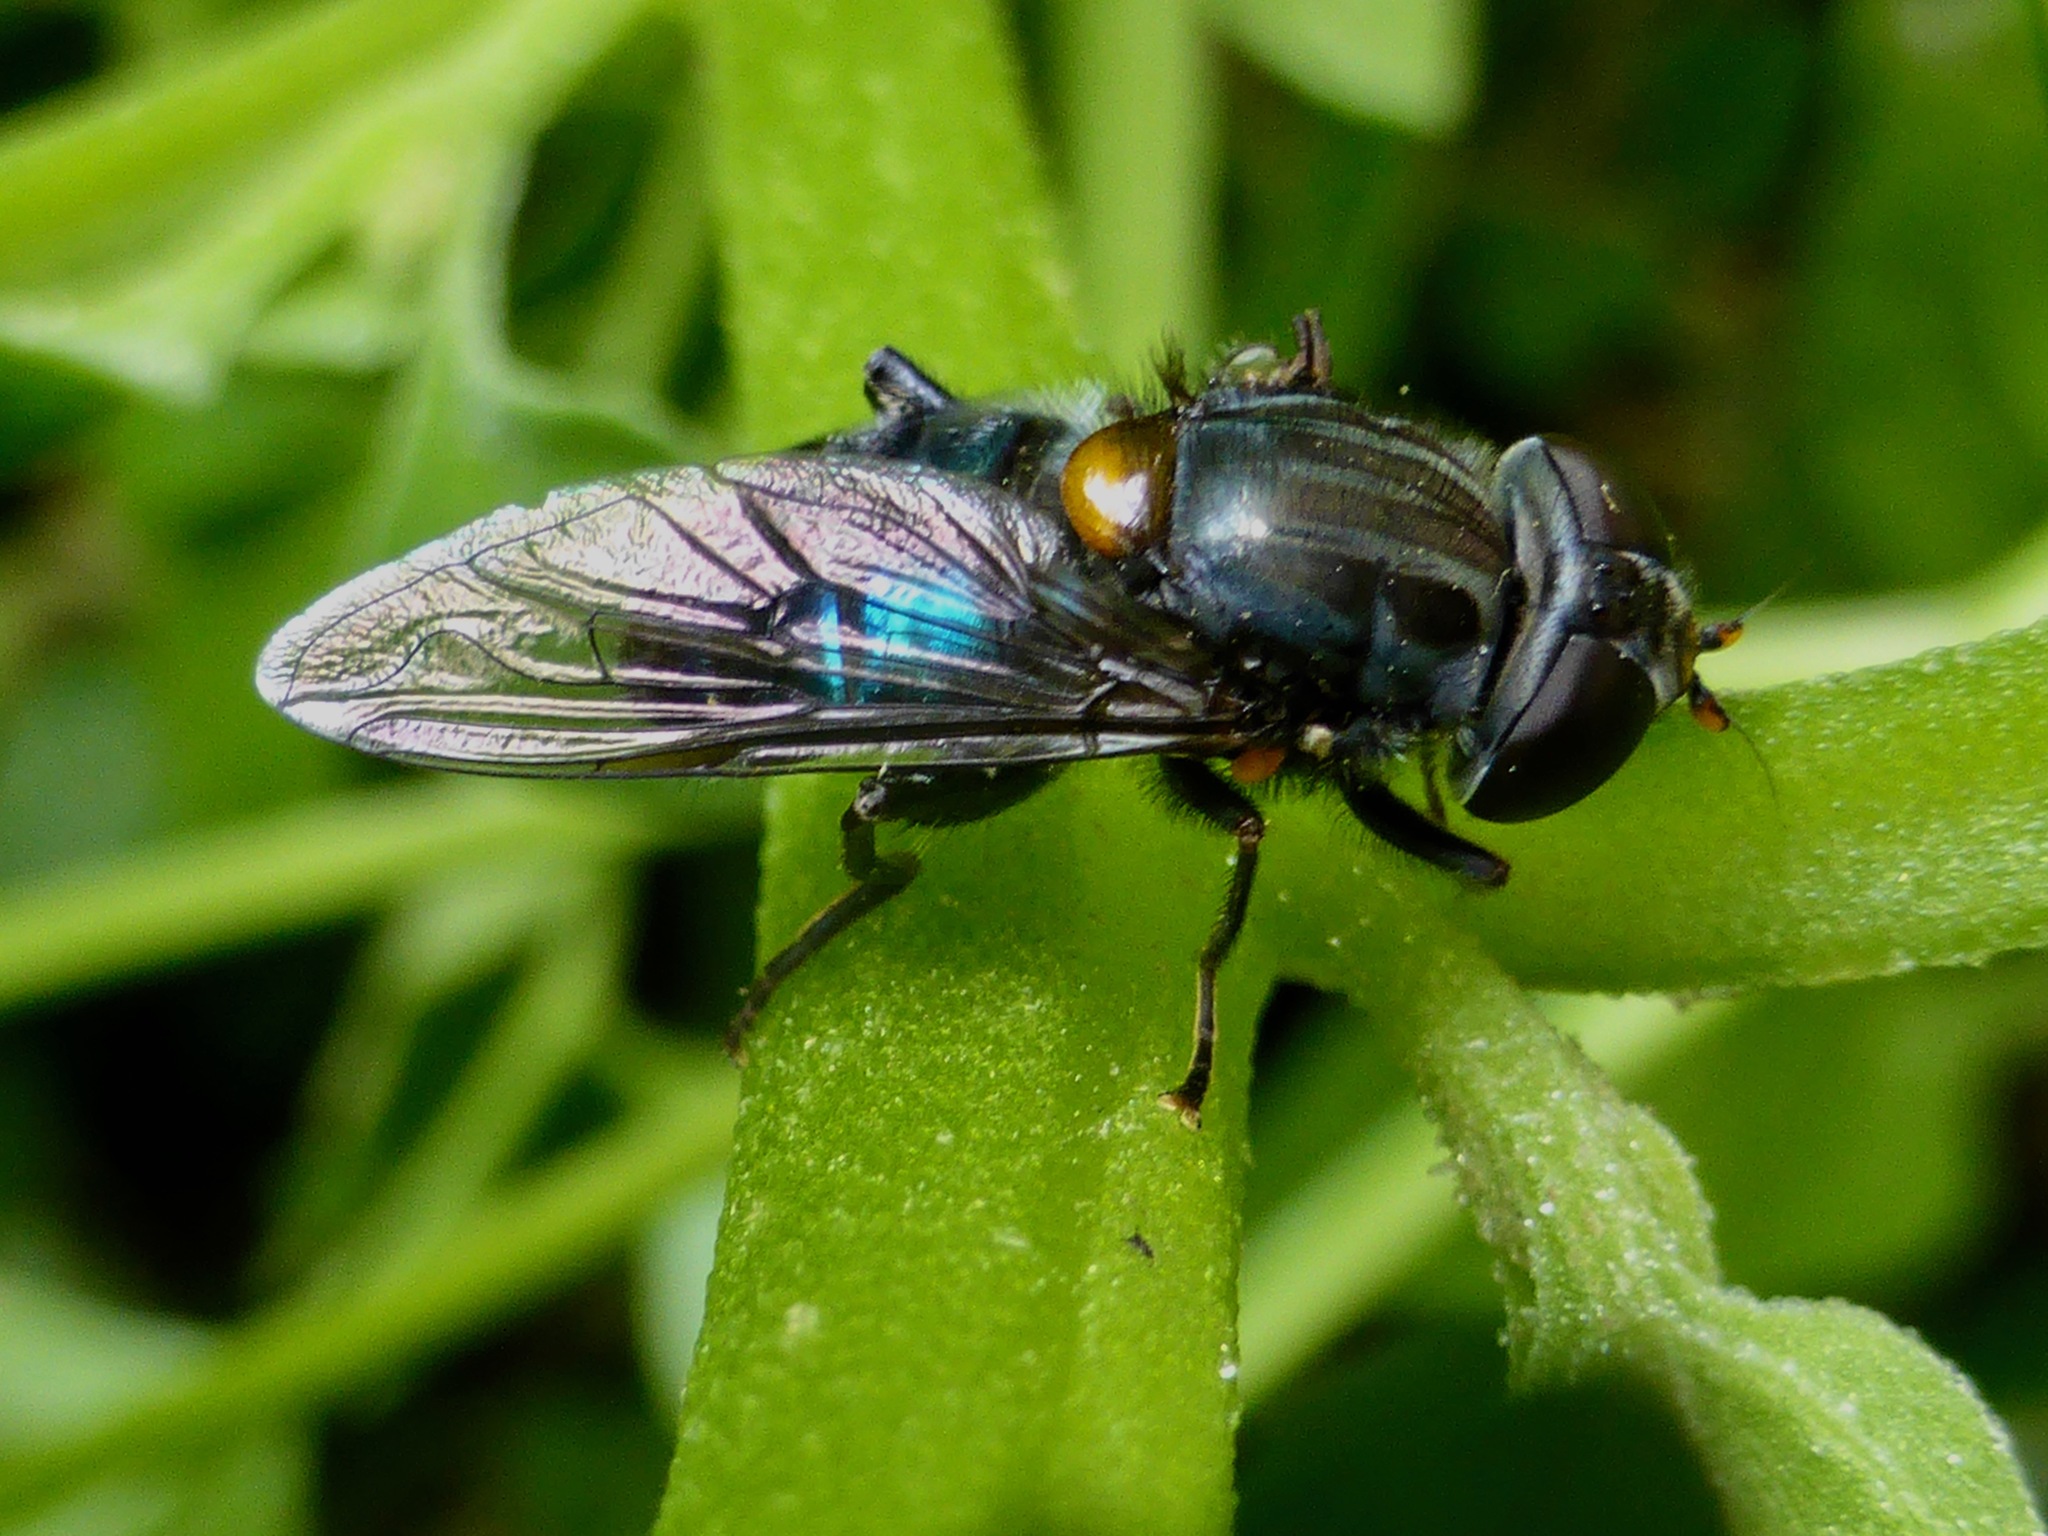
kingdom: Animalia
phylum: Arthropoda
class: Insecta
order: Diptera
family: Syrphidae
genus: Helophilus
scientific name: Helophilus hochstetteri
